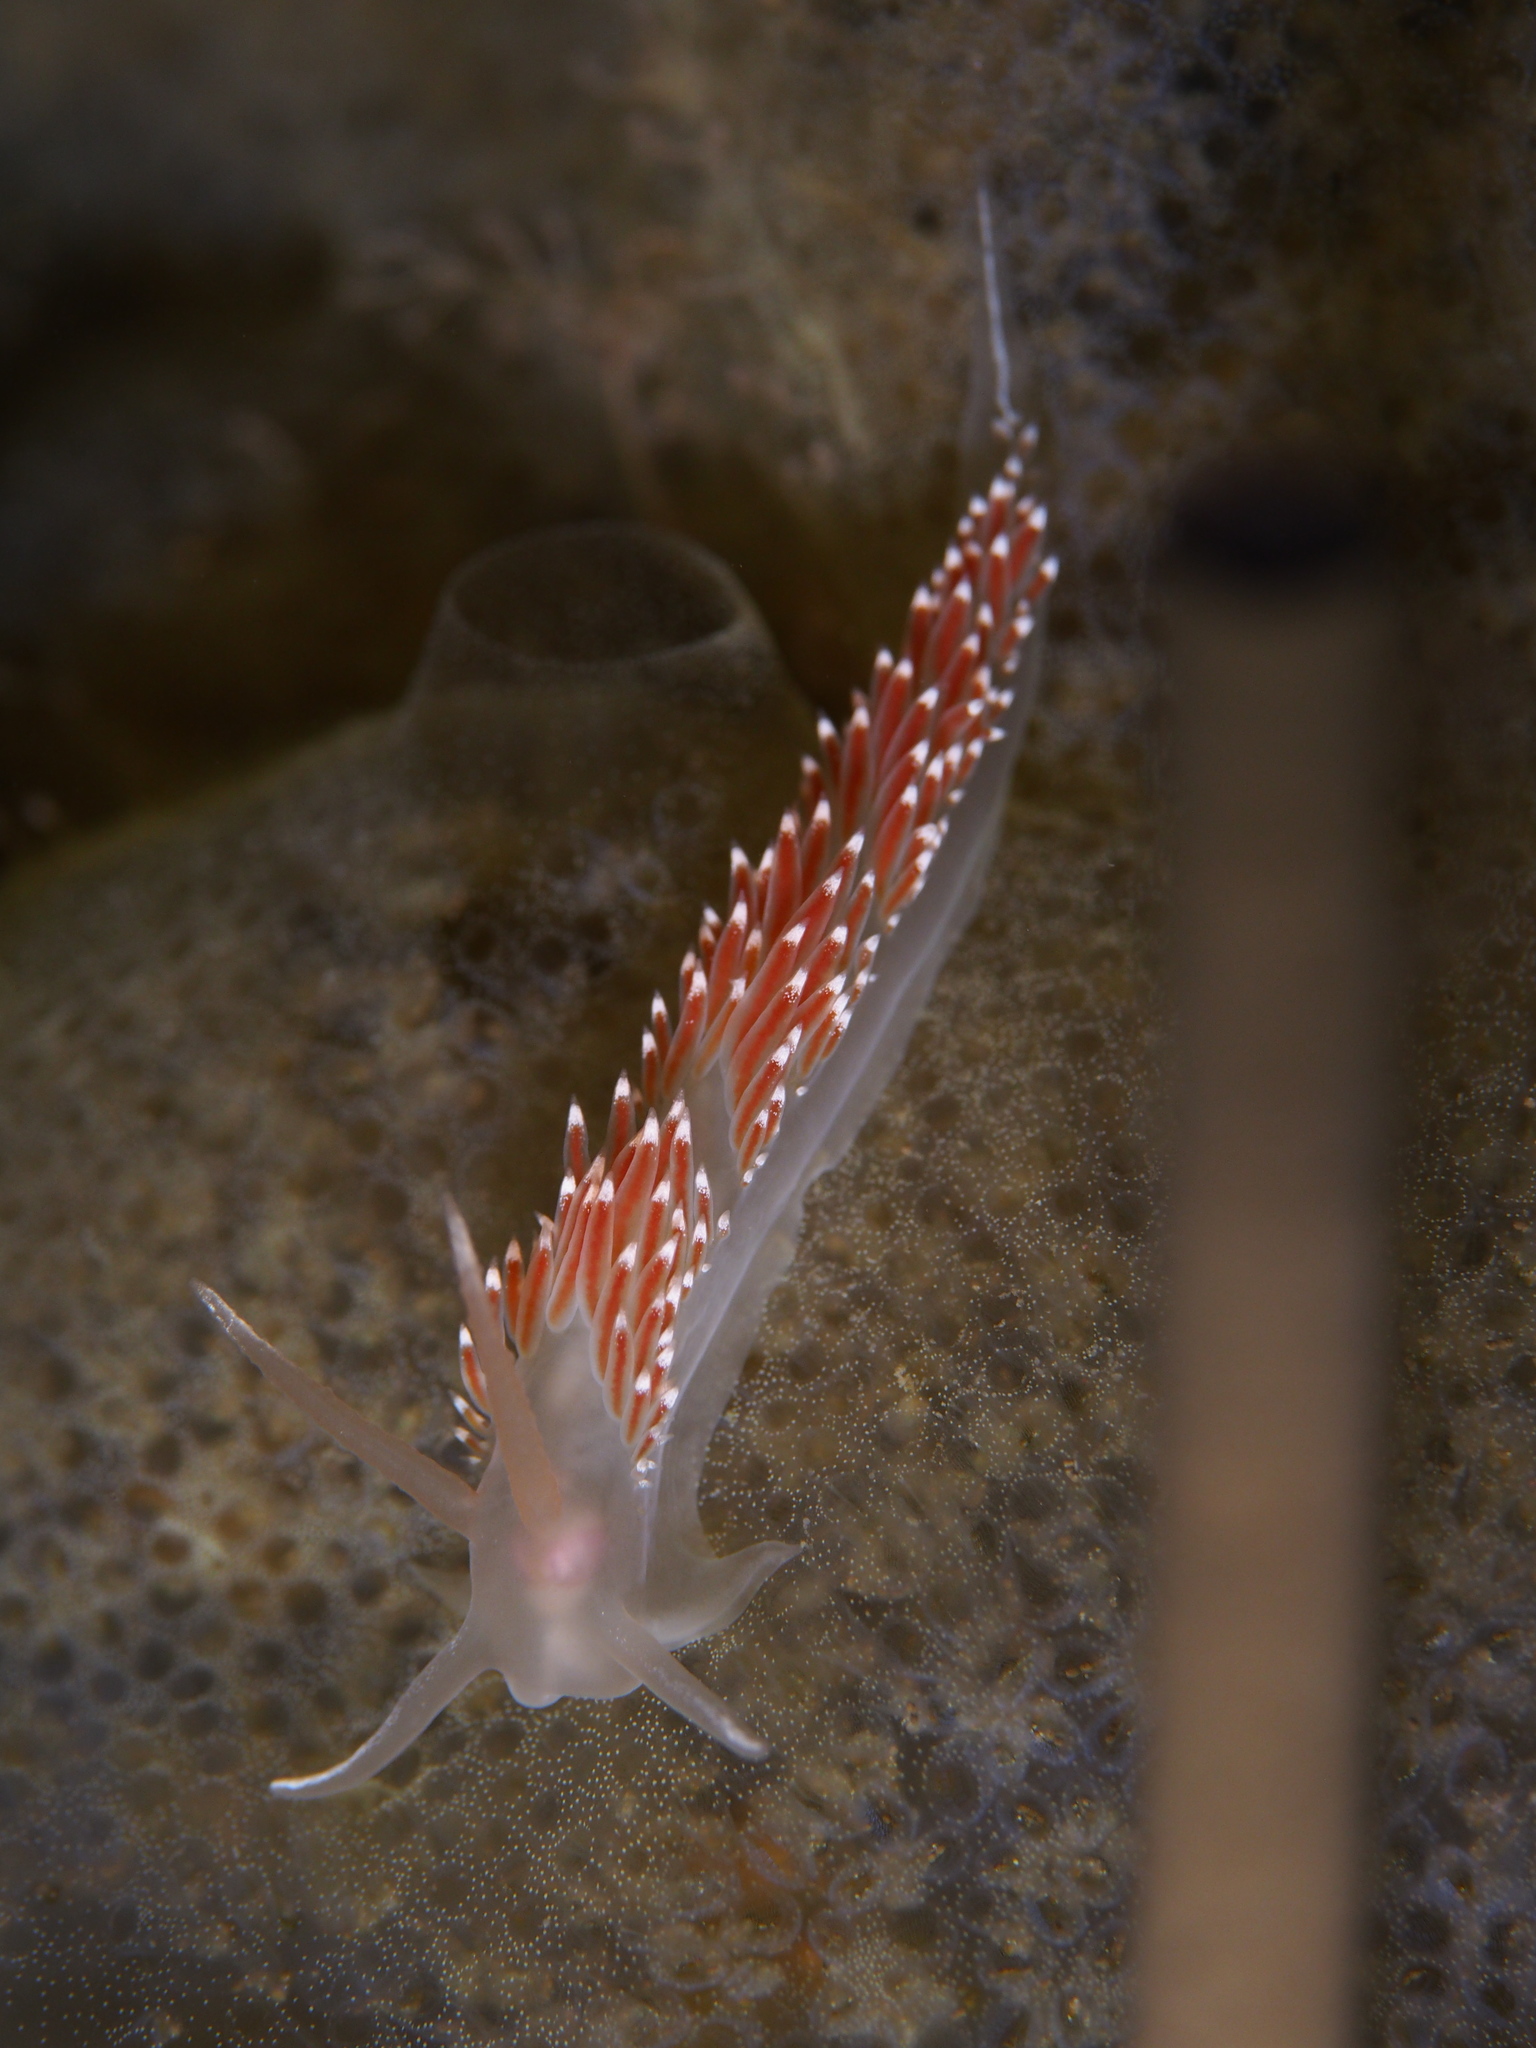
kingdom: Animalia
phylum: Mollusca
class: Gastropoda
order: Nudibranchia
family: Coryphellidae
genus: Coryphella
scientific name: Coryphella verrucosa
